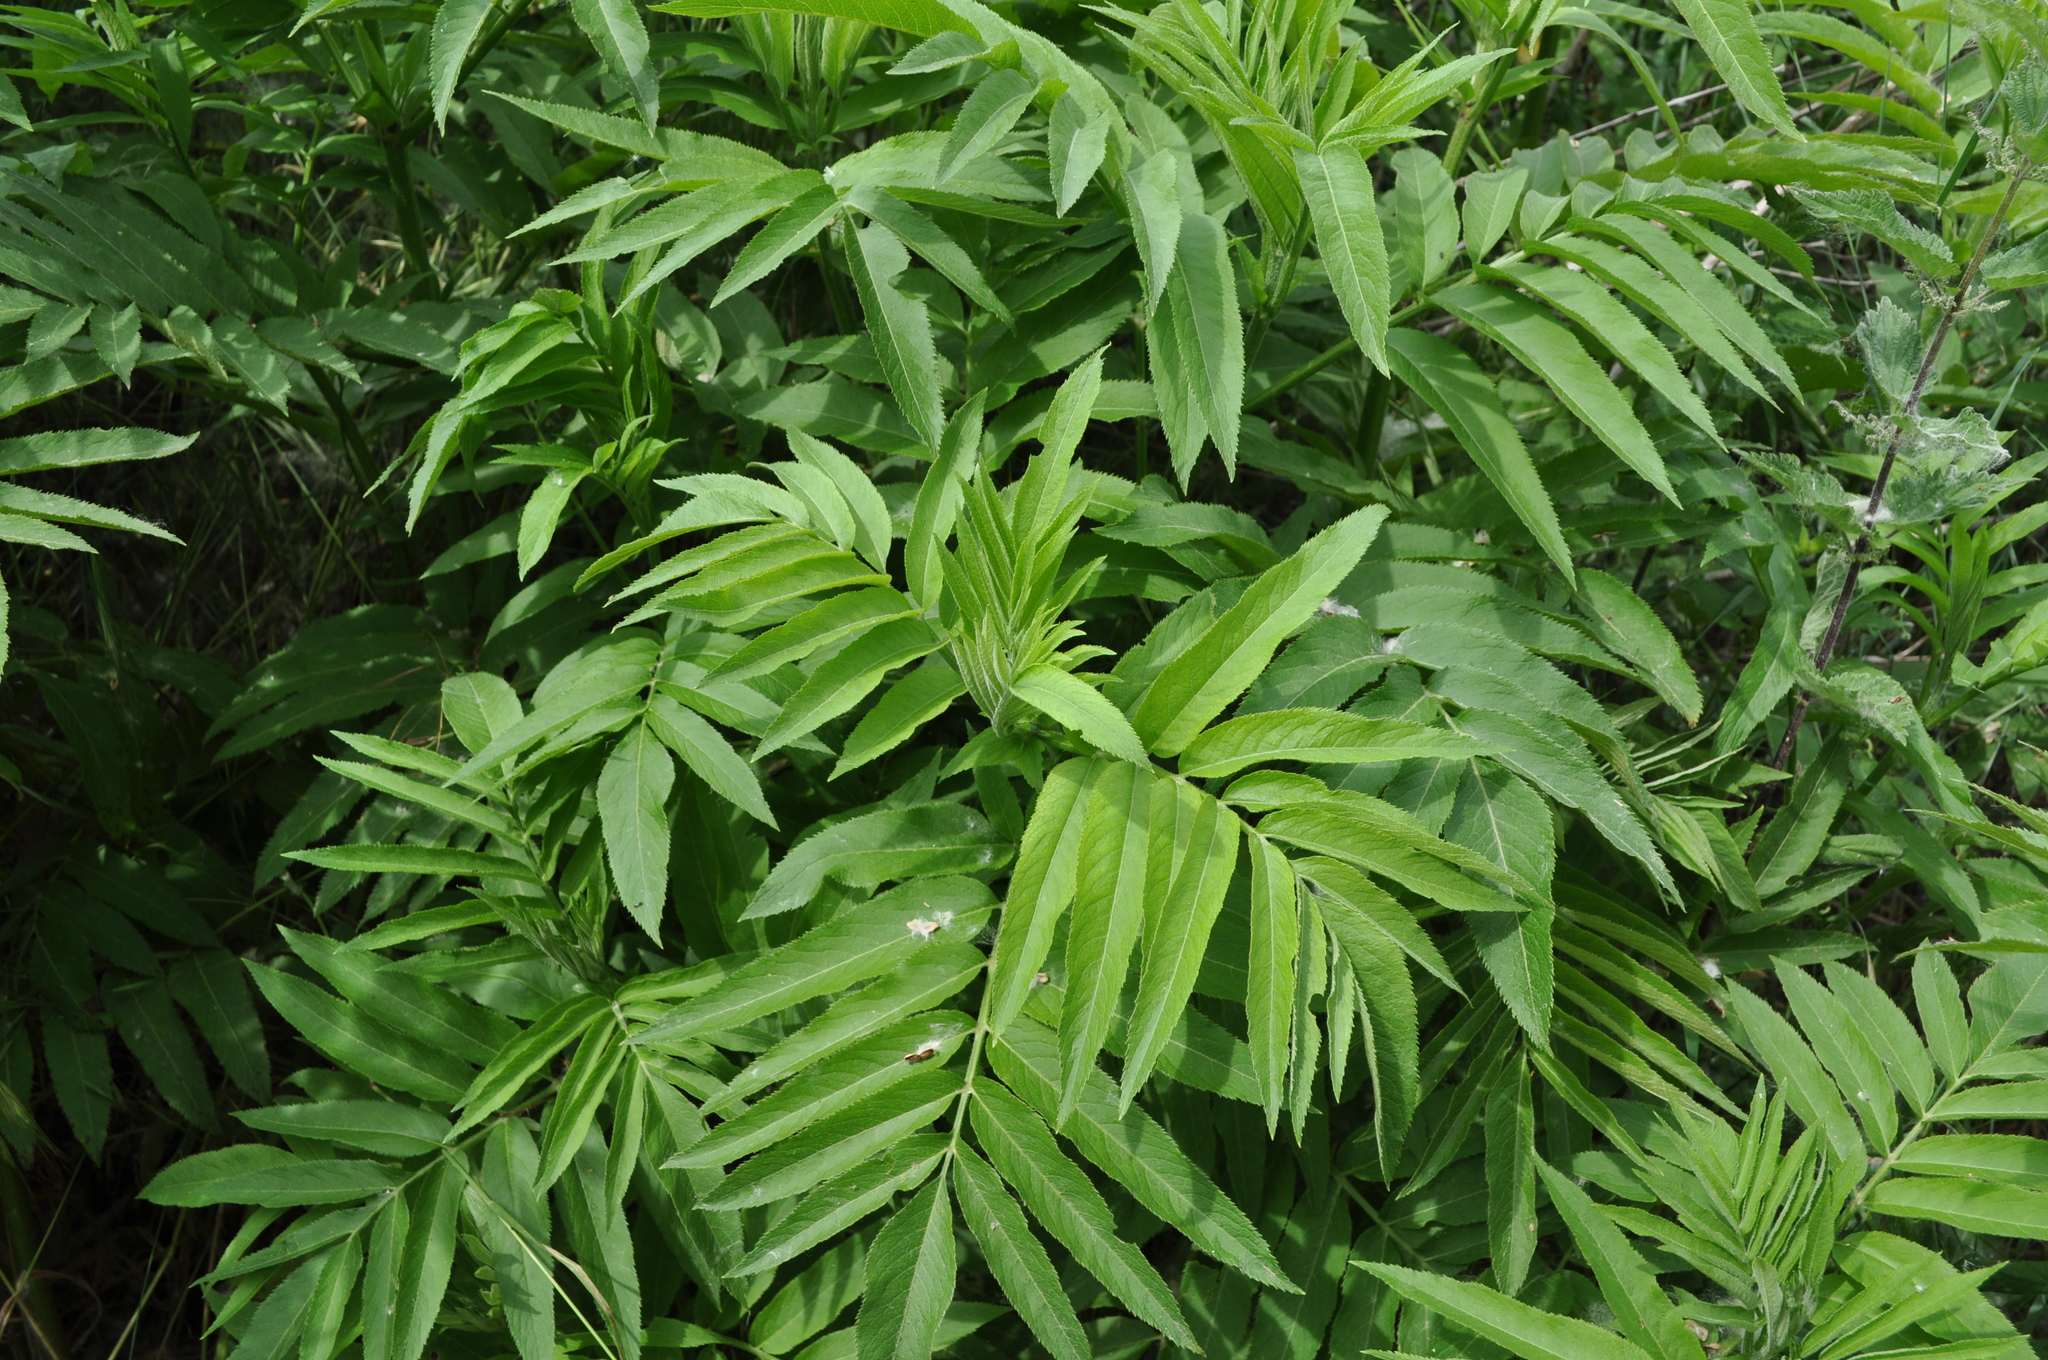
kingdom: Plantae
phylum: Tracheophyta
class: Magnoliopsida
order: Dipsacales
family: Viburnaceae
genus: Sambucus
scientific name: Sambucus ebulus
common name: Dwarf elder
